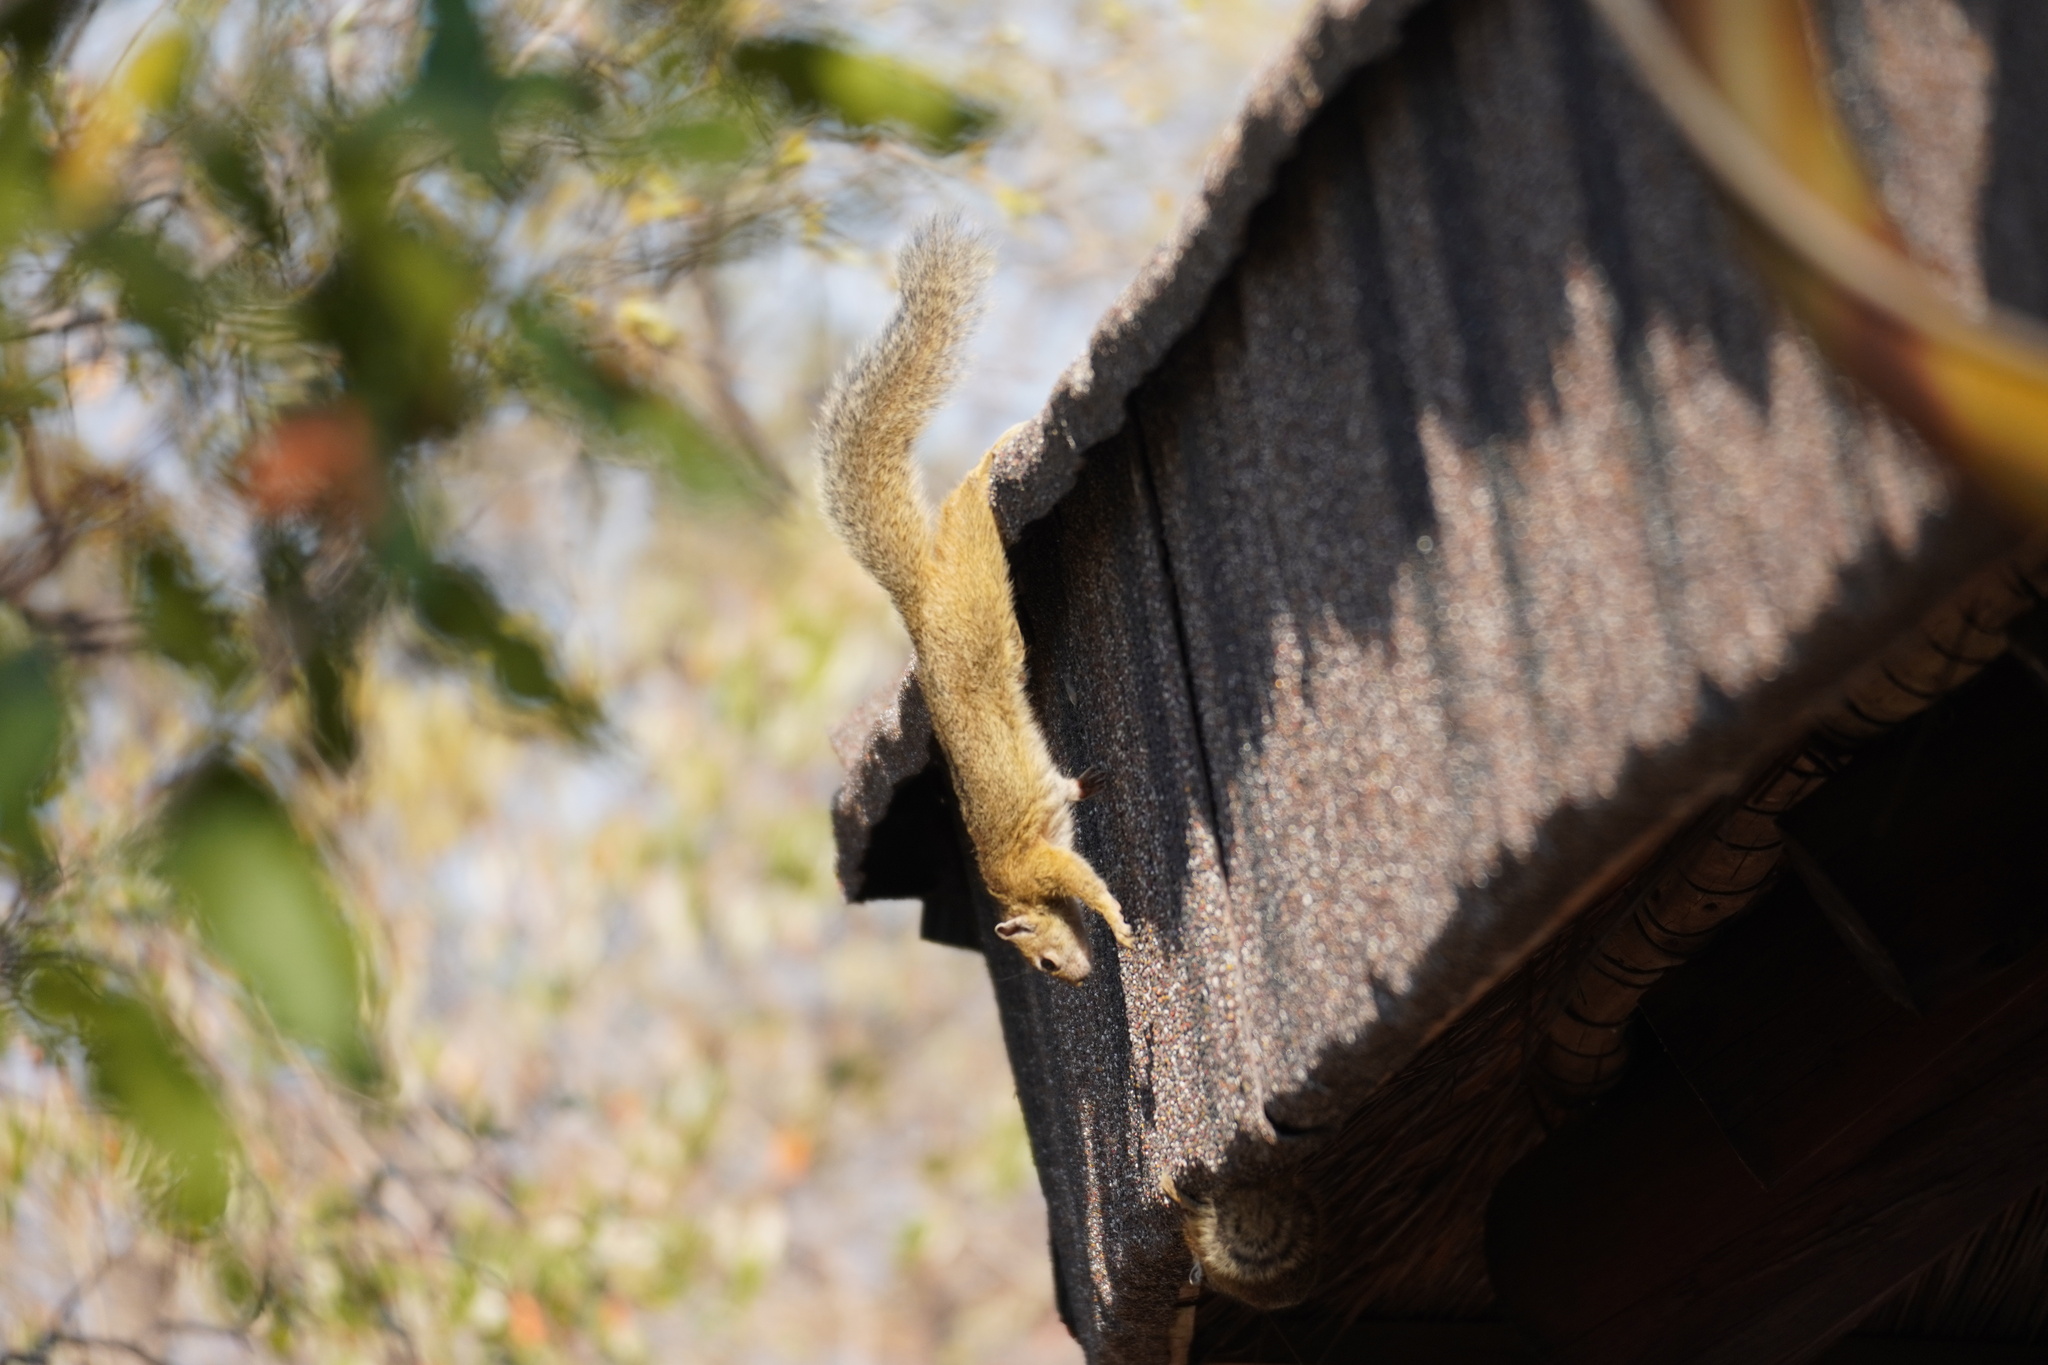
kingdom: Animalia
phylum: Chordata
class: Mammalia
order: Rodentia
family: Sciuridae
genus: Paraxerus
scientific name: Paraxerus cepapi
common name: Smith's bush squirrel
